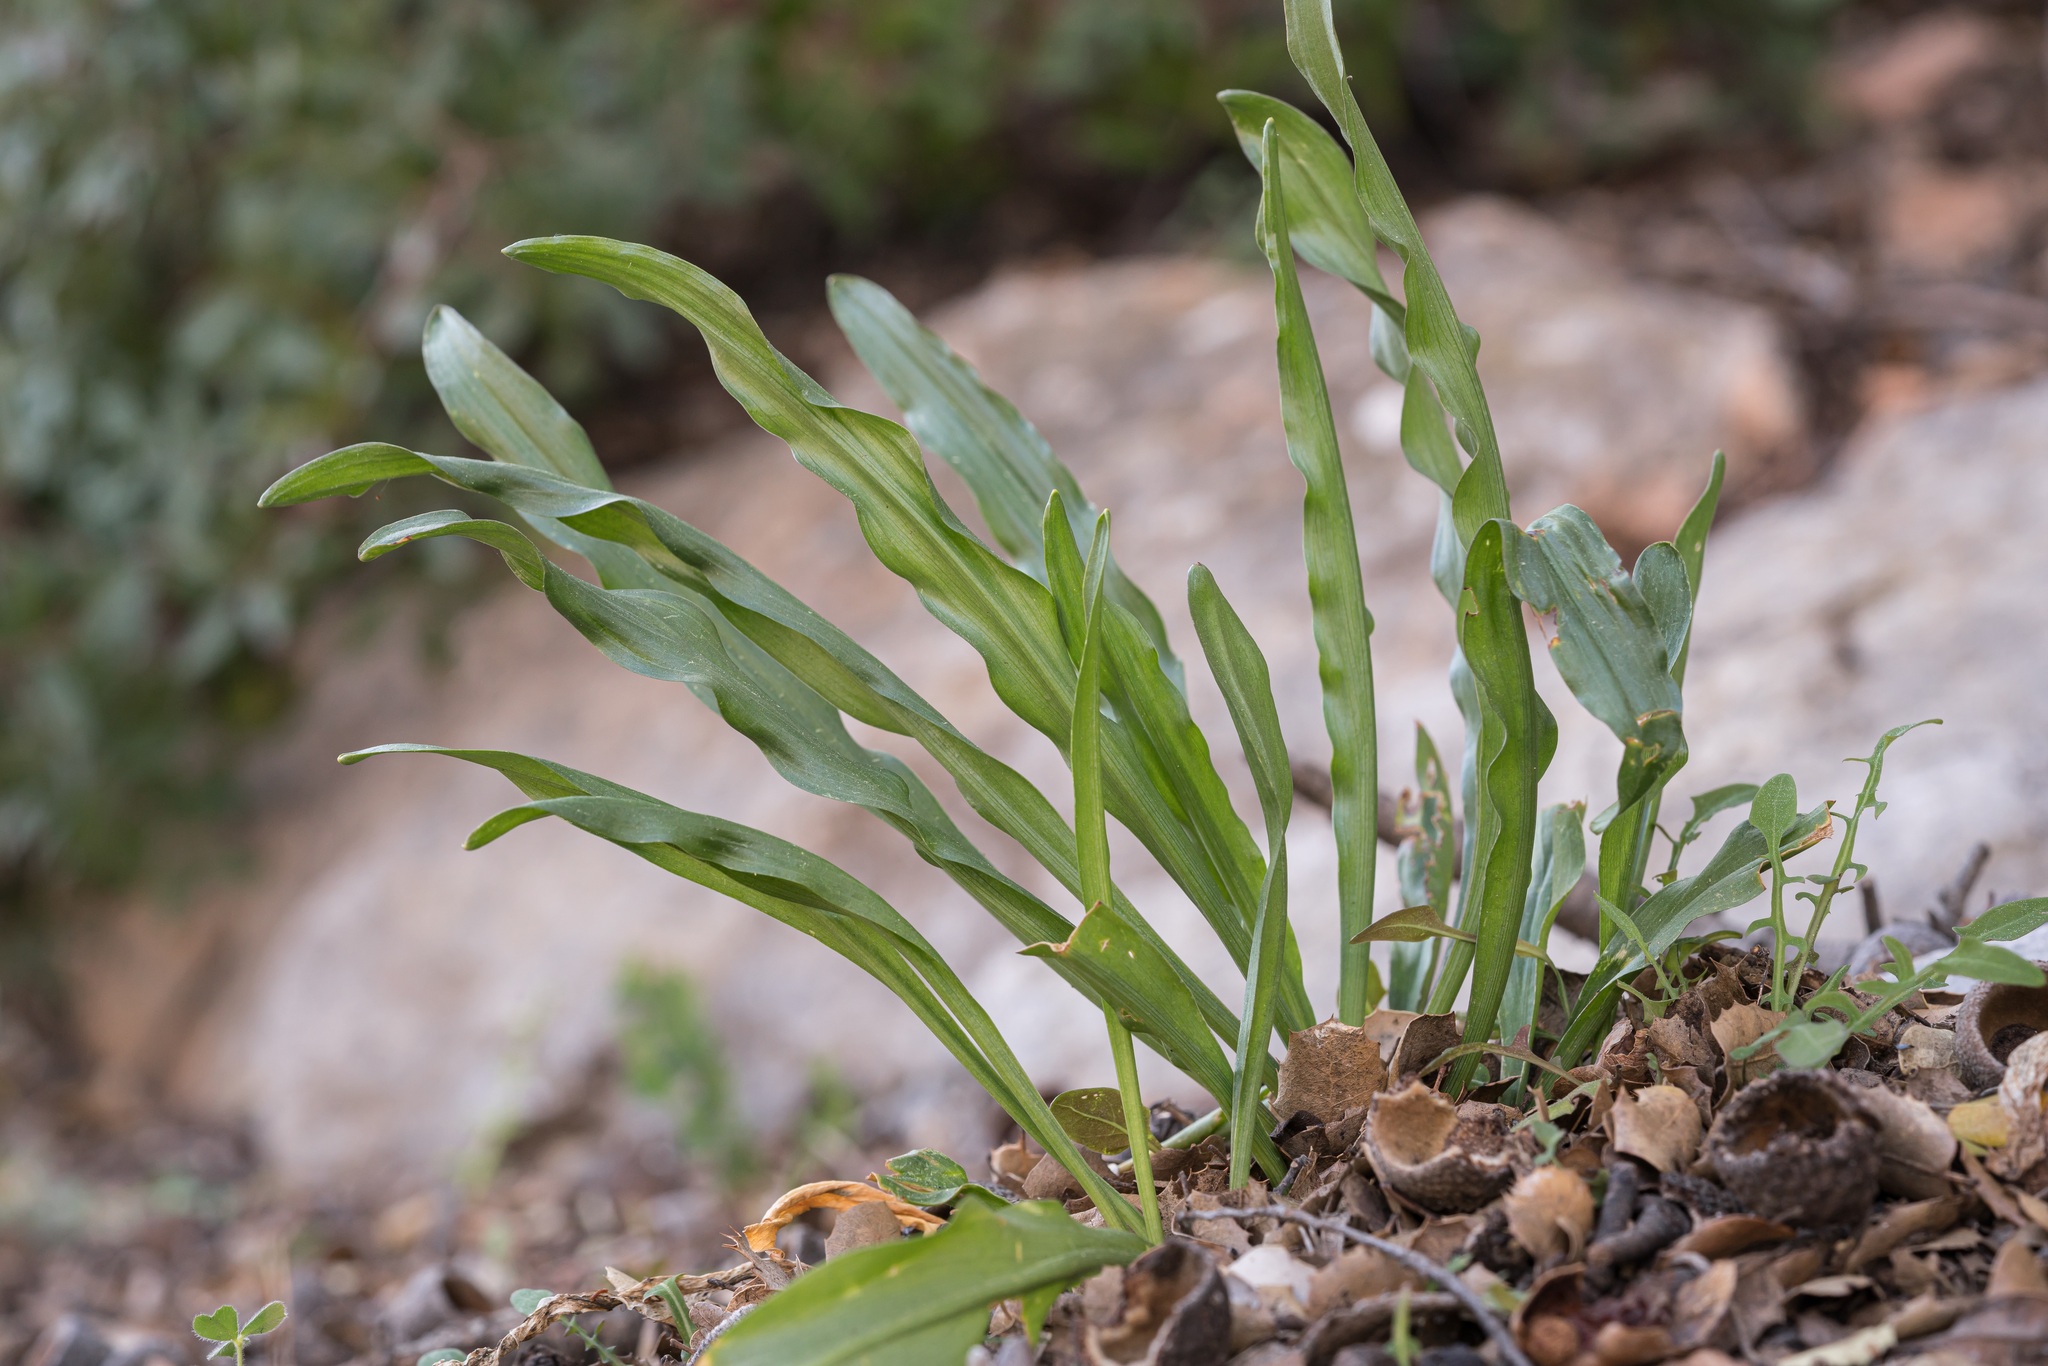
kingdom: Plantae
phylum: Tracheophyta
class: Liliopsida
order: Alismatales
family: Araceae
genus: Biarum
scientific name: Biarum tenuifolium
